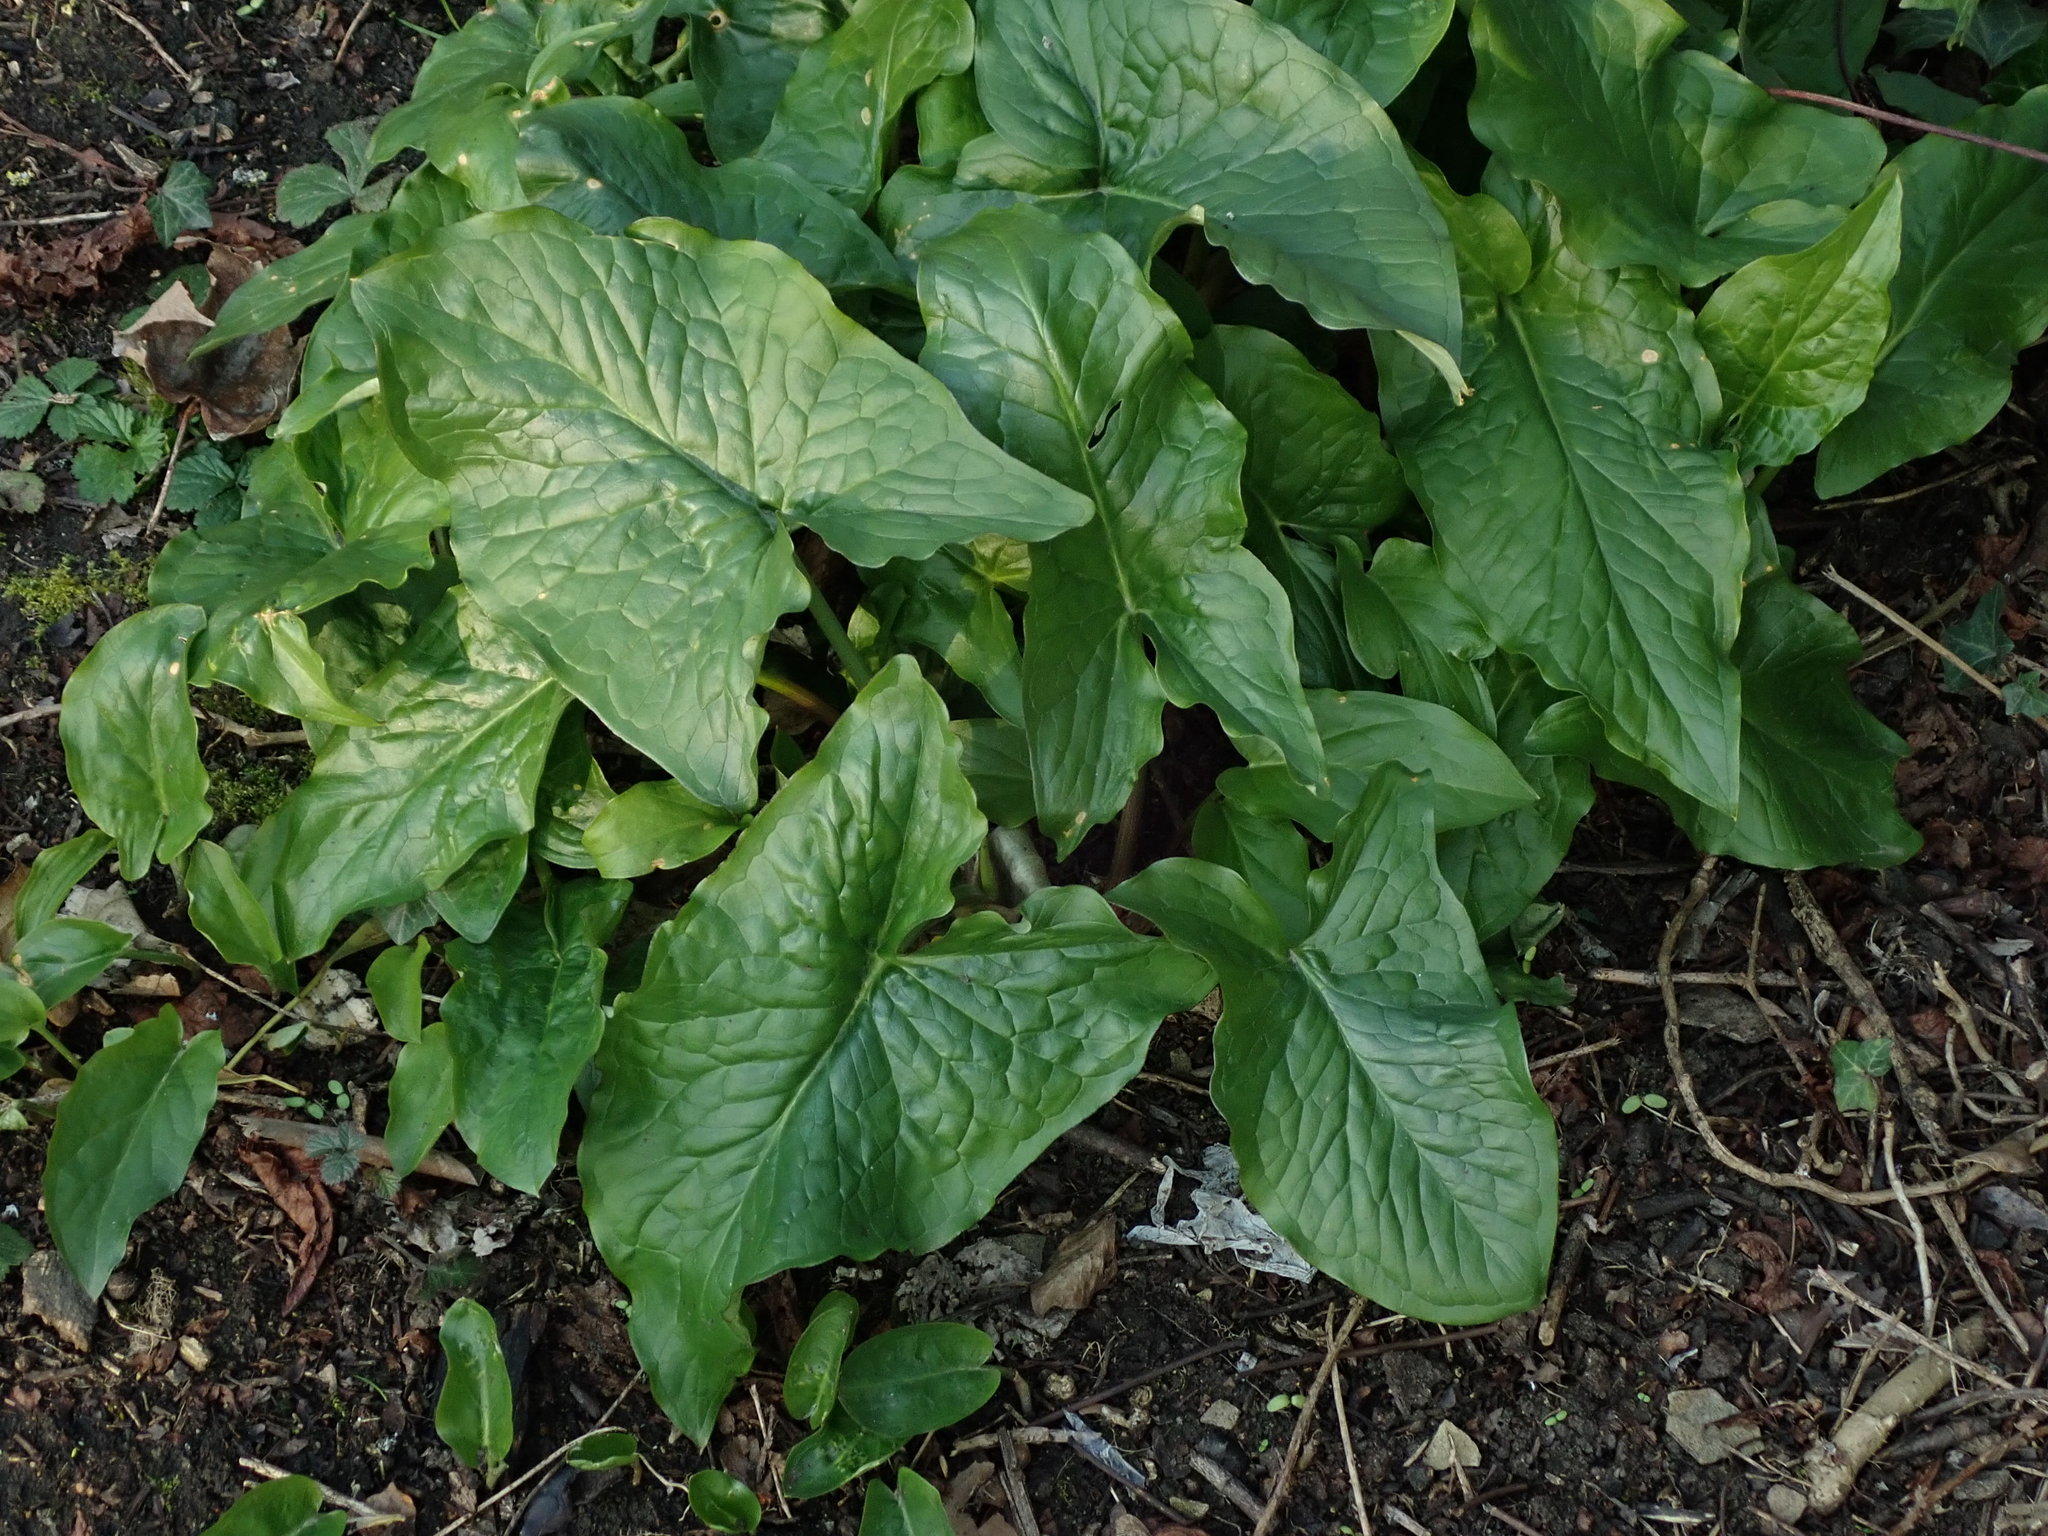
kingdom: Plantae
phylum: Tracheophyta
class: Liliopsida
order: Alismatales
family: Araceae
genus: Arum
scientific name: Arum maculatum
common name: Lords-and-ladies
